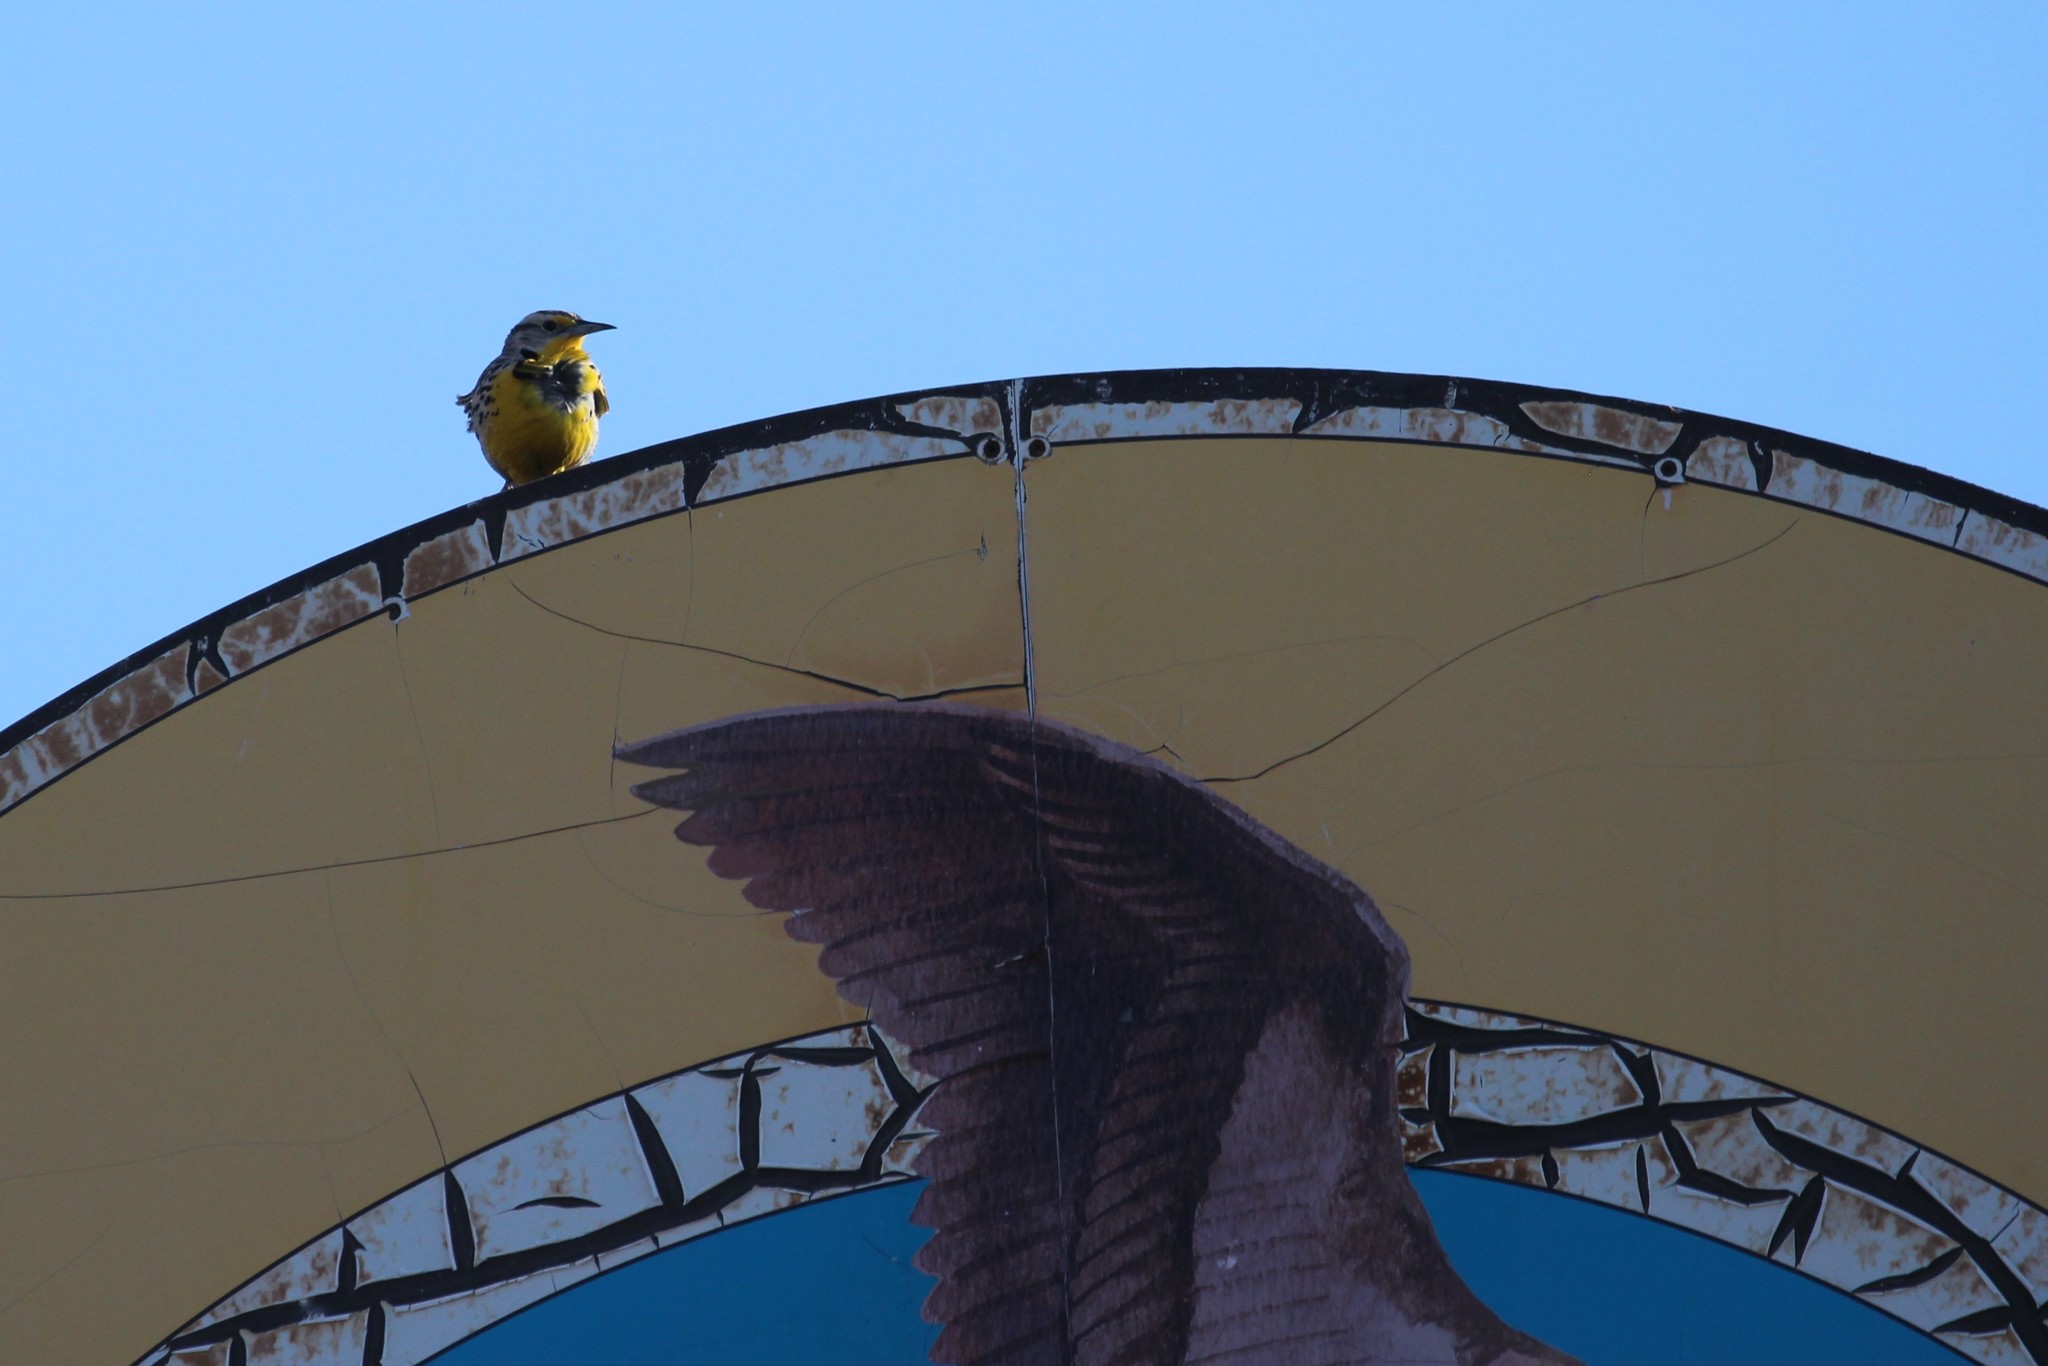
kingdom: Animalia
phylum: Chordata
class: Aves
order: Passeriformes
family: Icteridae
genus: Sturnella
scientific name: Sturnella neglecta
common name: Western meadowlark
